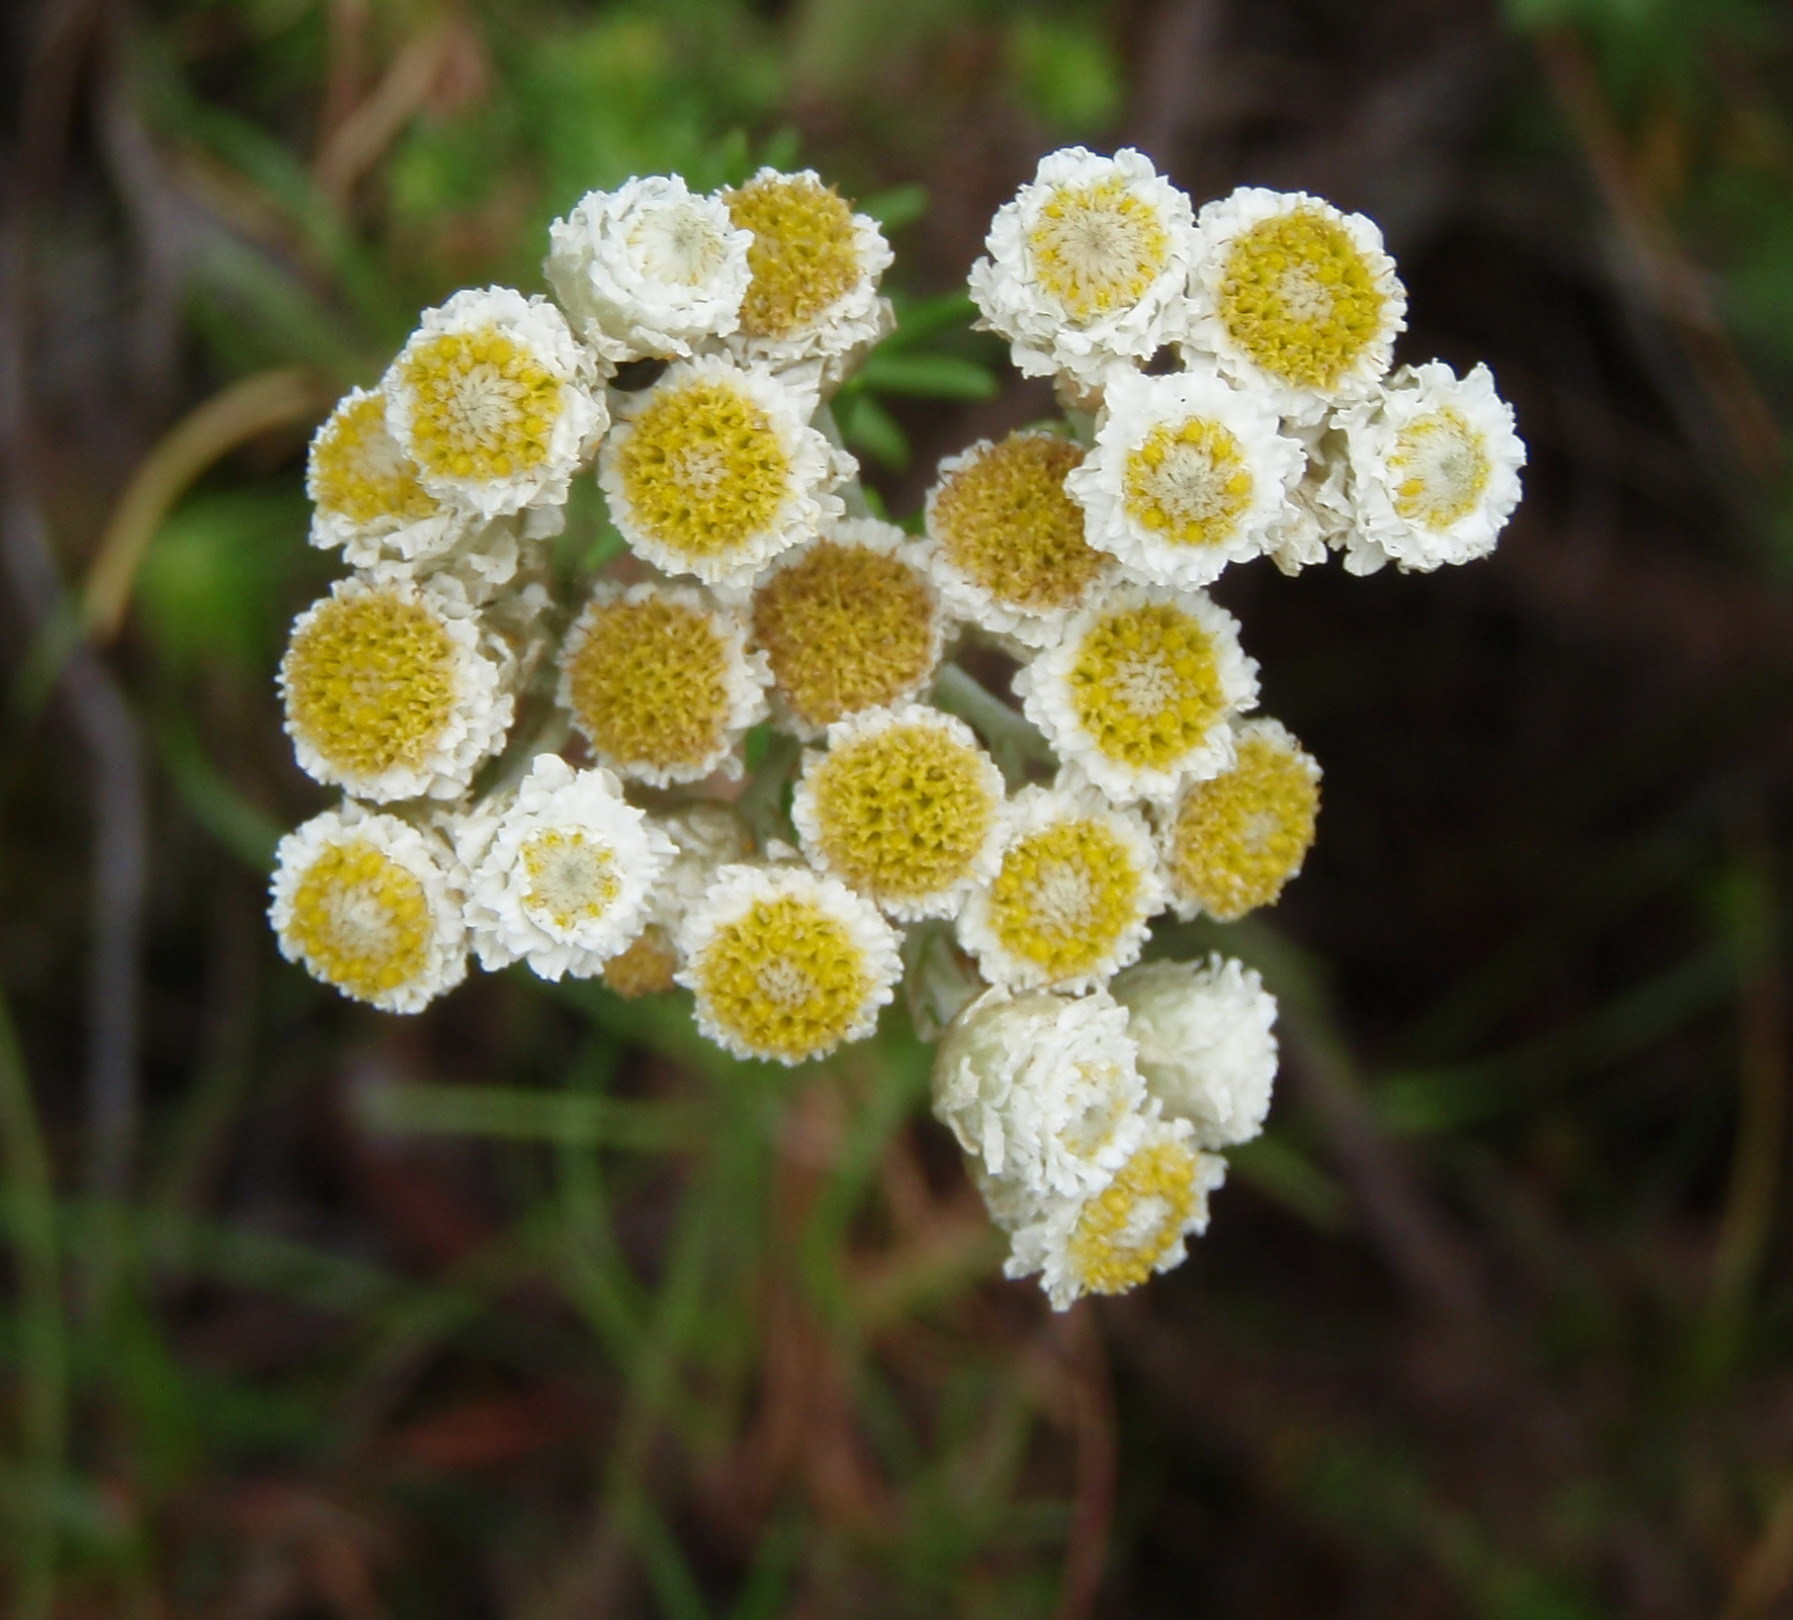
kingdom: Plantae
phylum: Tracheophyta
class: Magnoliopsida
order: Asterales
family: Asteraceae
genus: Helichrysum
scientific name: Helichrysum teretifolium
